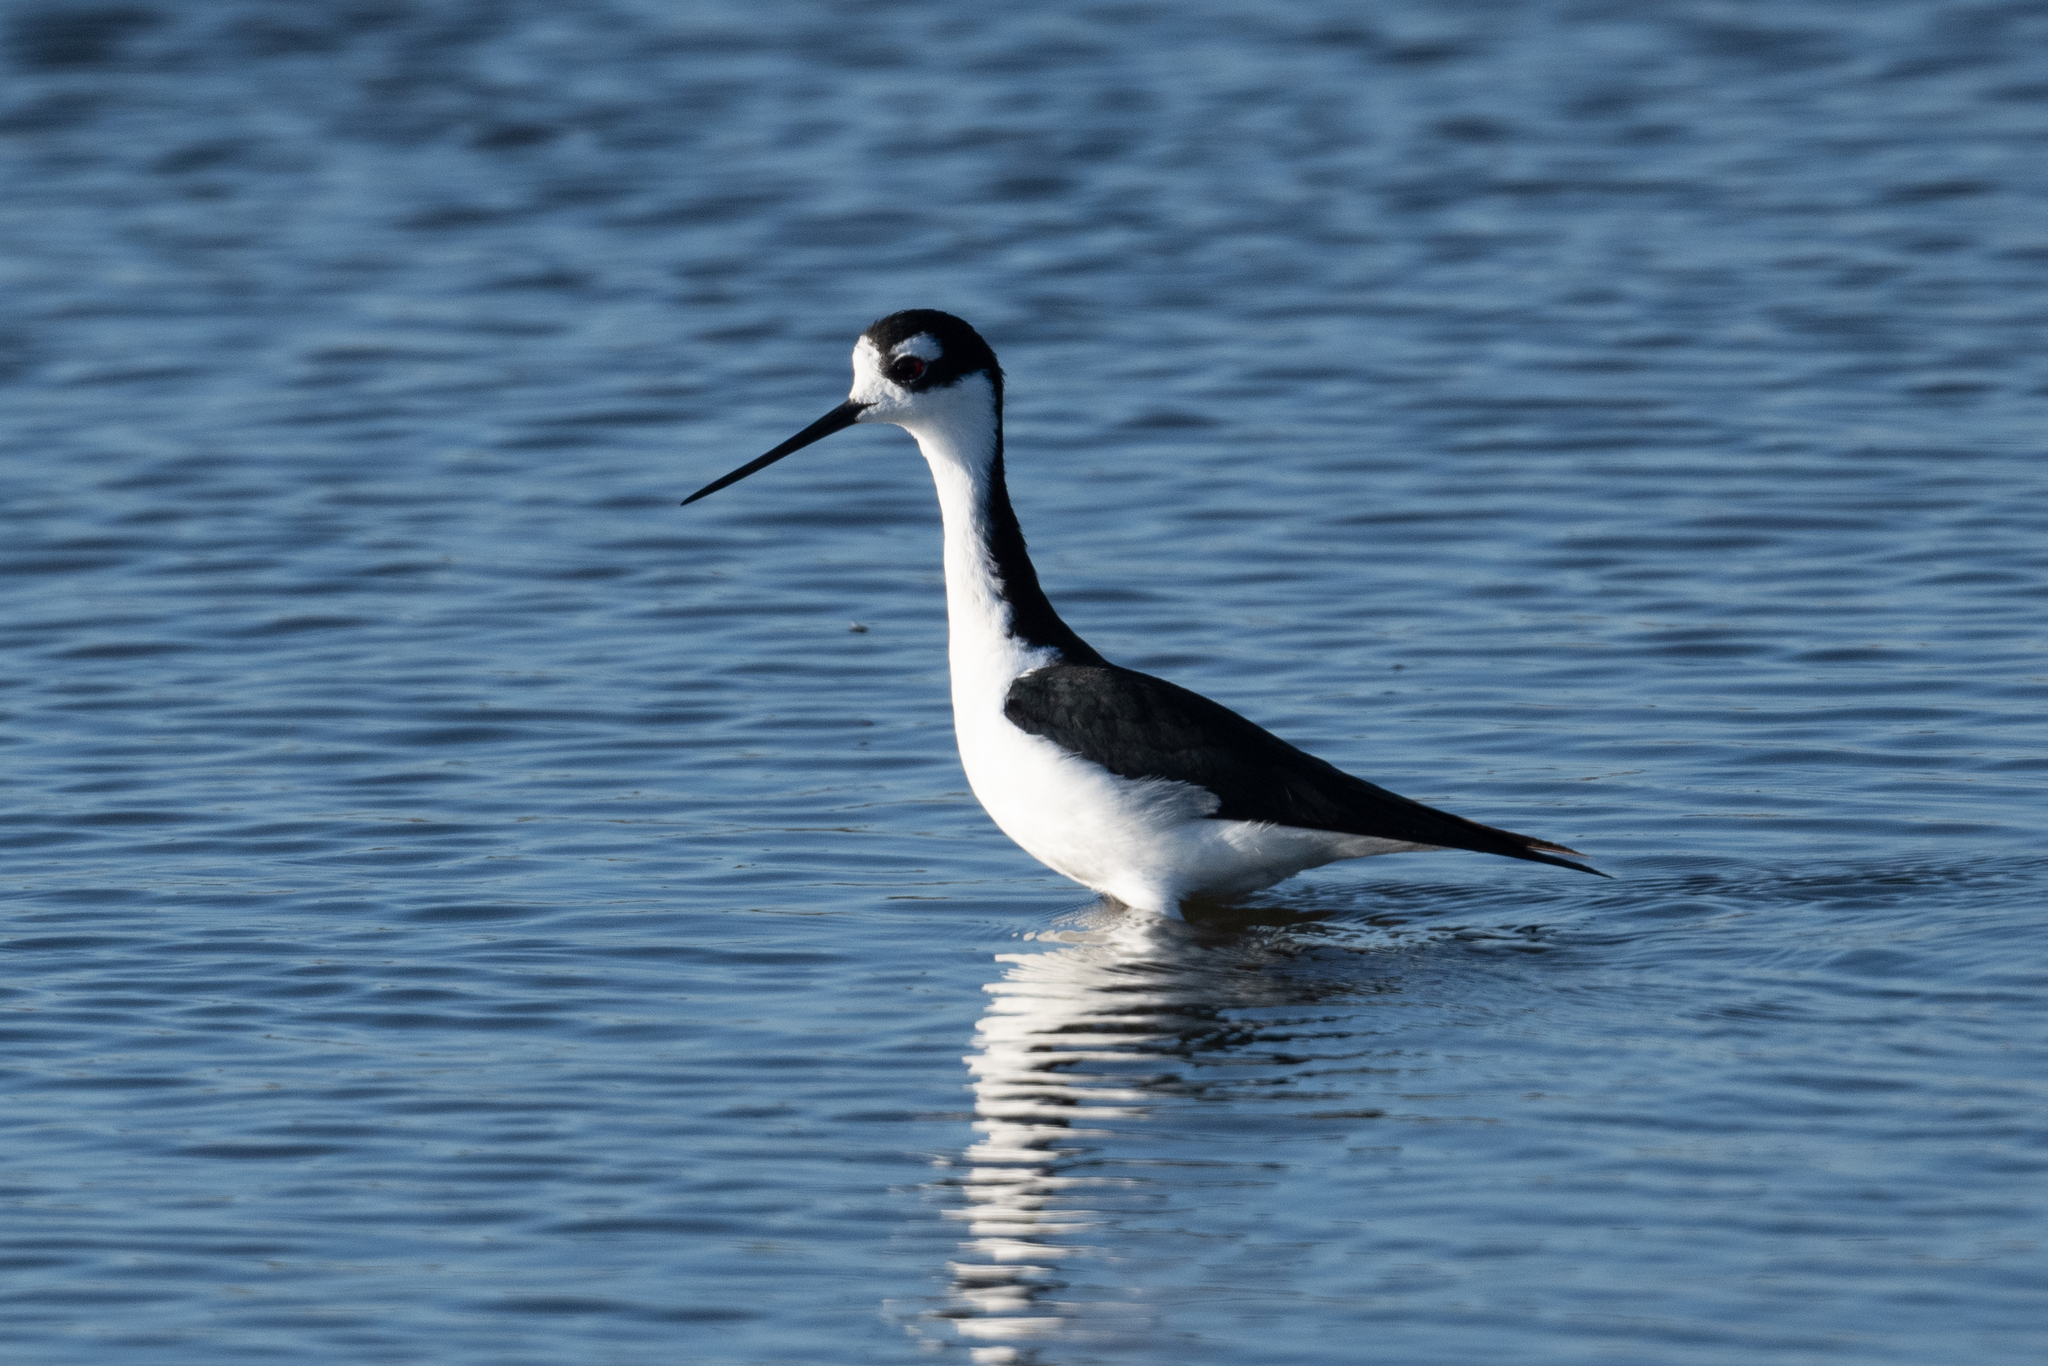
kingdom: Animalia
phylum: Chordata
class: Aves
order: Charadriiformes
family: Recurvirostridae
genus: Himantopus
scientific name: Himantopus mexicanus
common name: Black-necked stilt
